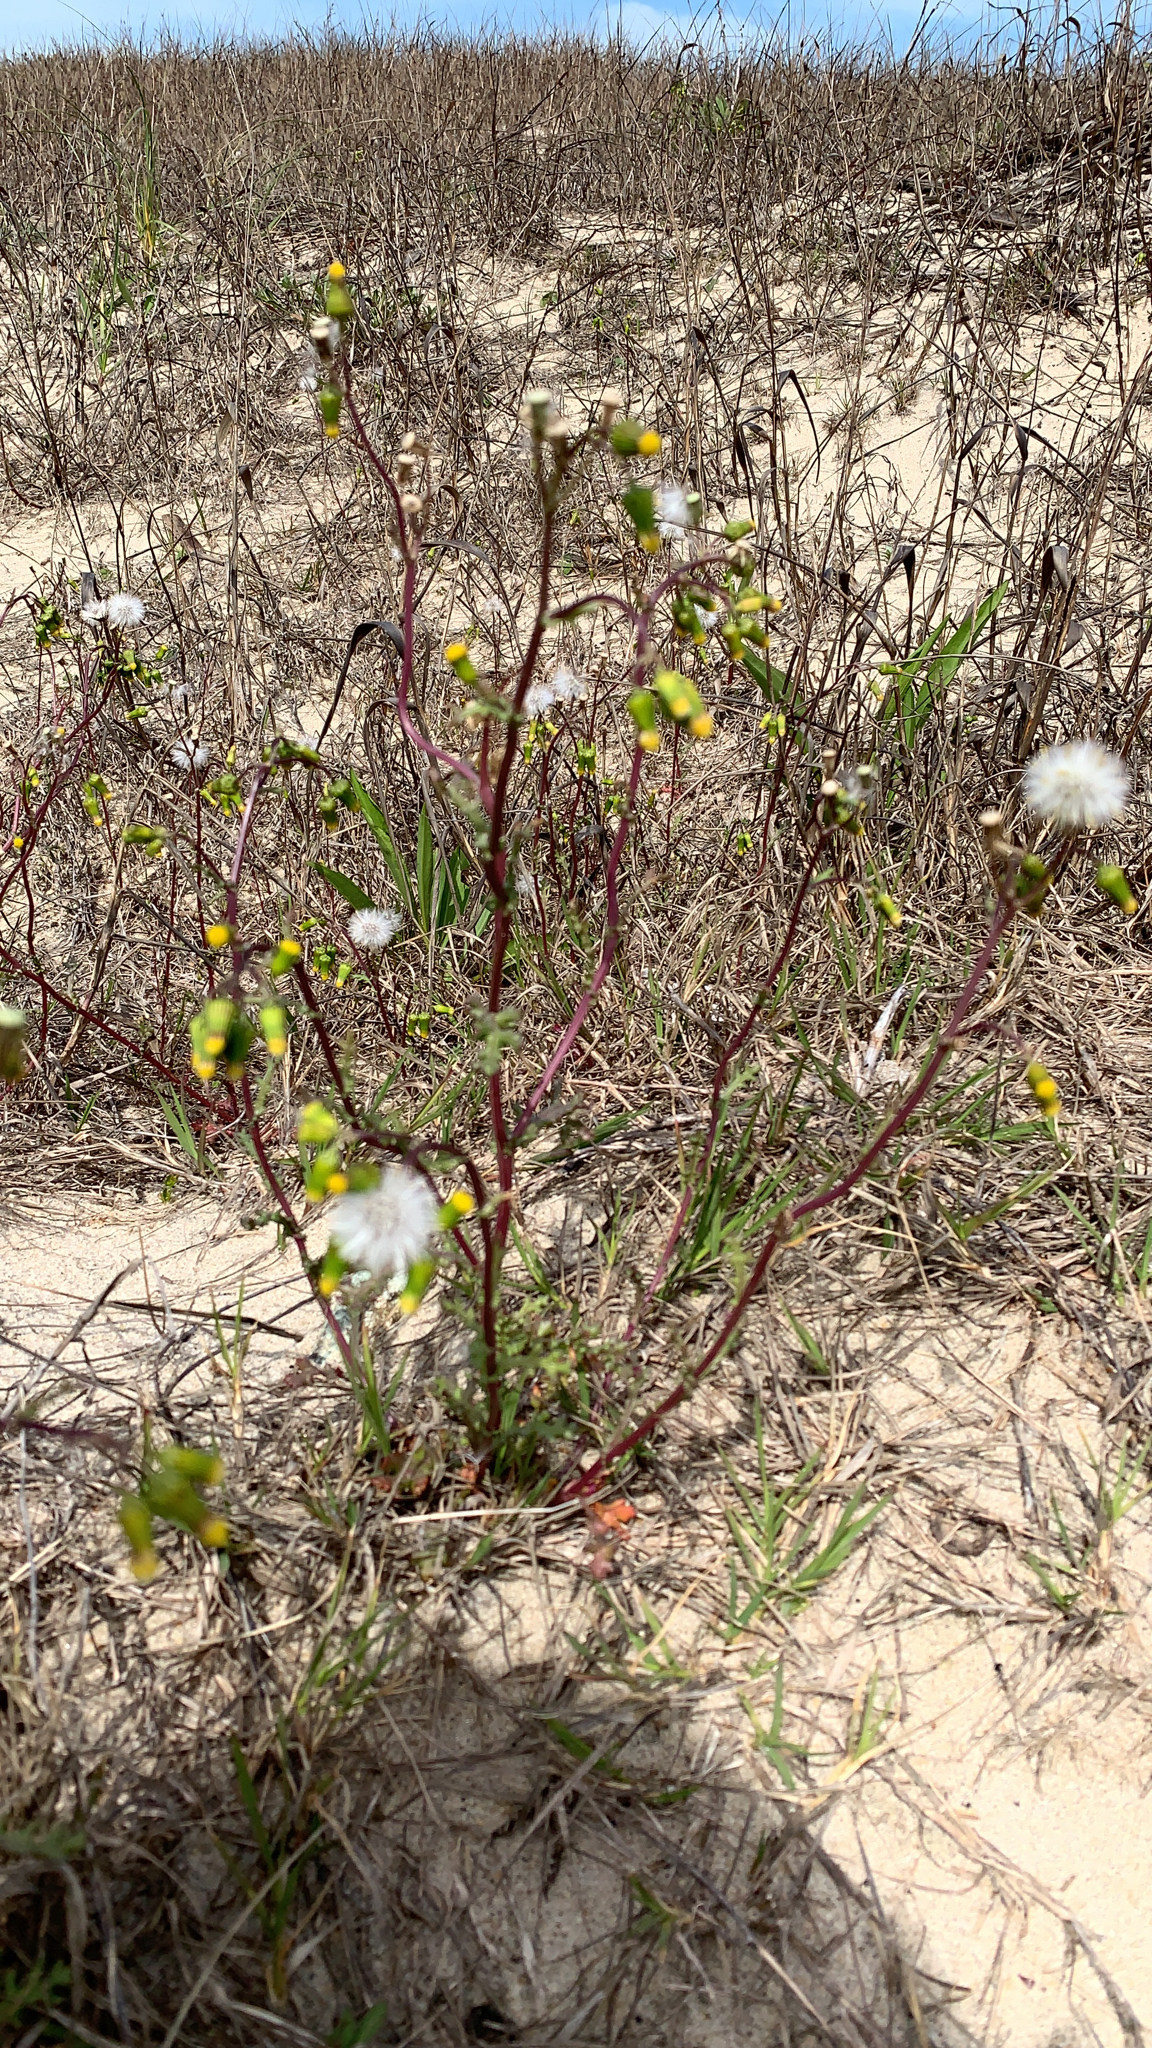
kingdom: Plantae
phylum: Tracheophyta
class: Magnoliopsida
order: Asterales
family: Asteraceae
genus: Senecio
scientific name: Senecio vulgaris
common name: Old-man-in-the-spring
